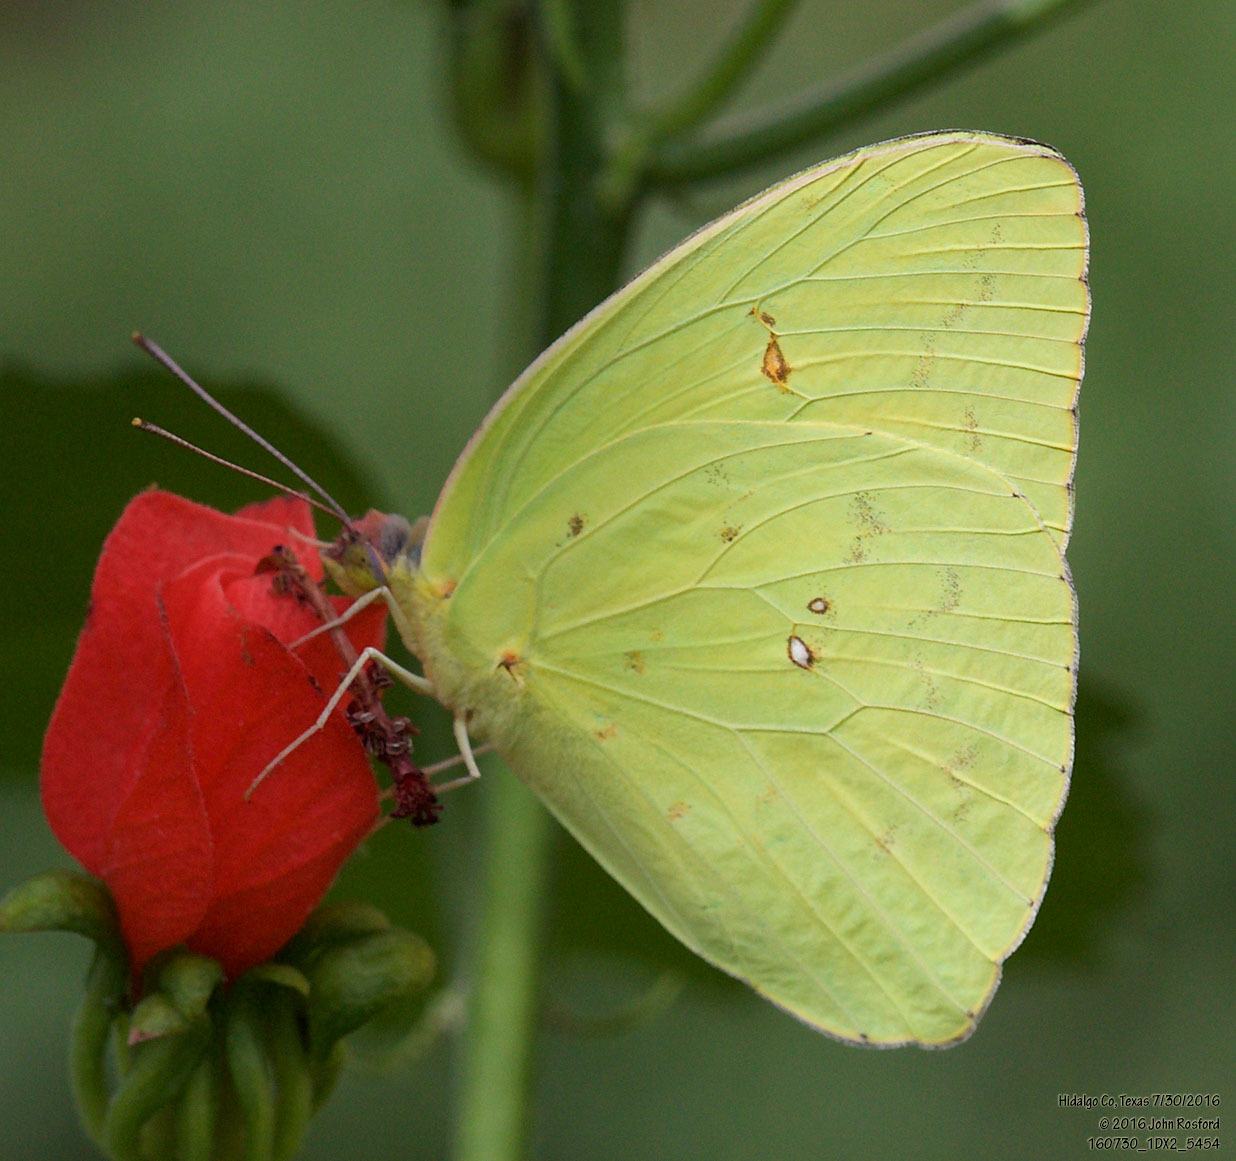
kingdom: Animalia
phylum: Arthropoda
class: Insecta
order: Lepidoptera
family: Pieridae
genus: Phoebis
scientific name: Phoebis sennae
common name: Cloudless sulphur
